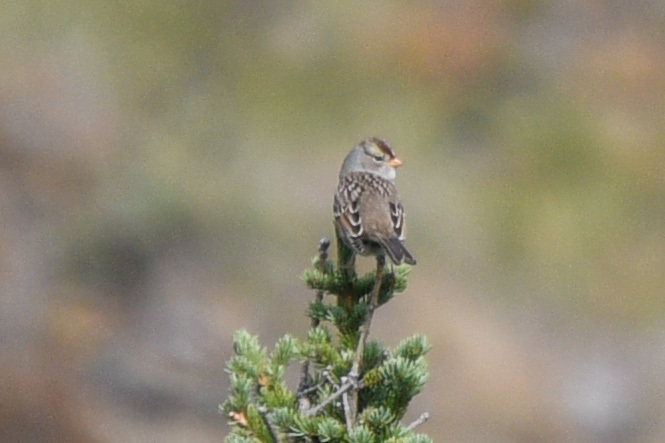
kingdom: Animalia
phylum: Chordata
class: Aves
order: Passeriformes
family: Passerellidae
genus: Zonotrichia
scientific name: Zonotrichia leucophrys
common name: White-crowned sparrow
